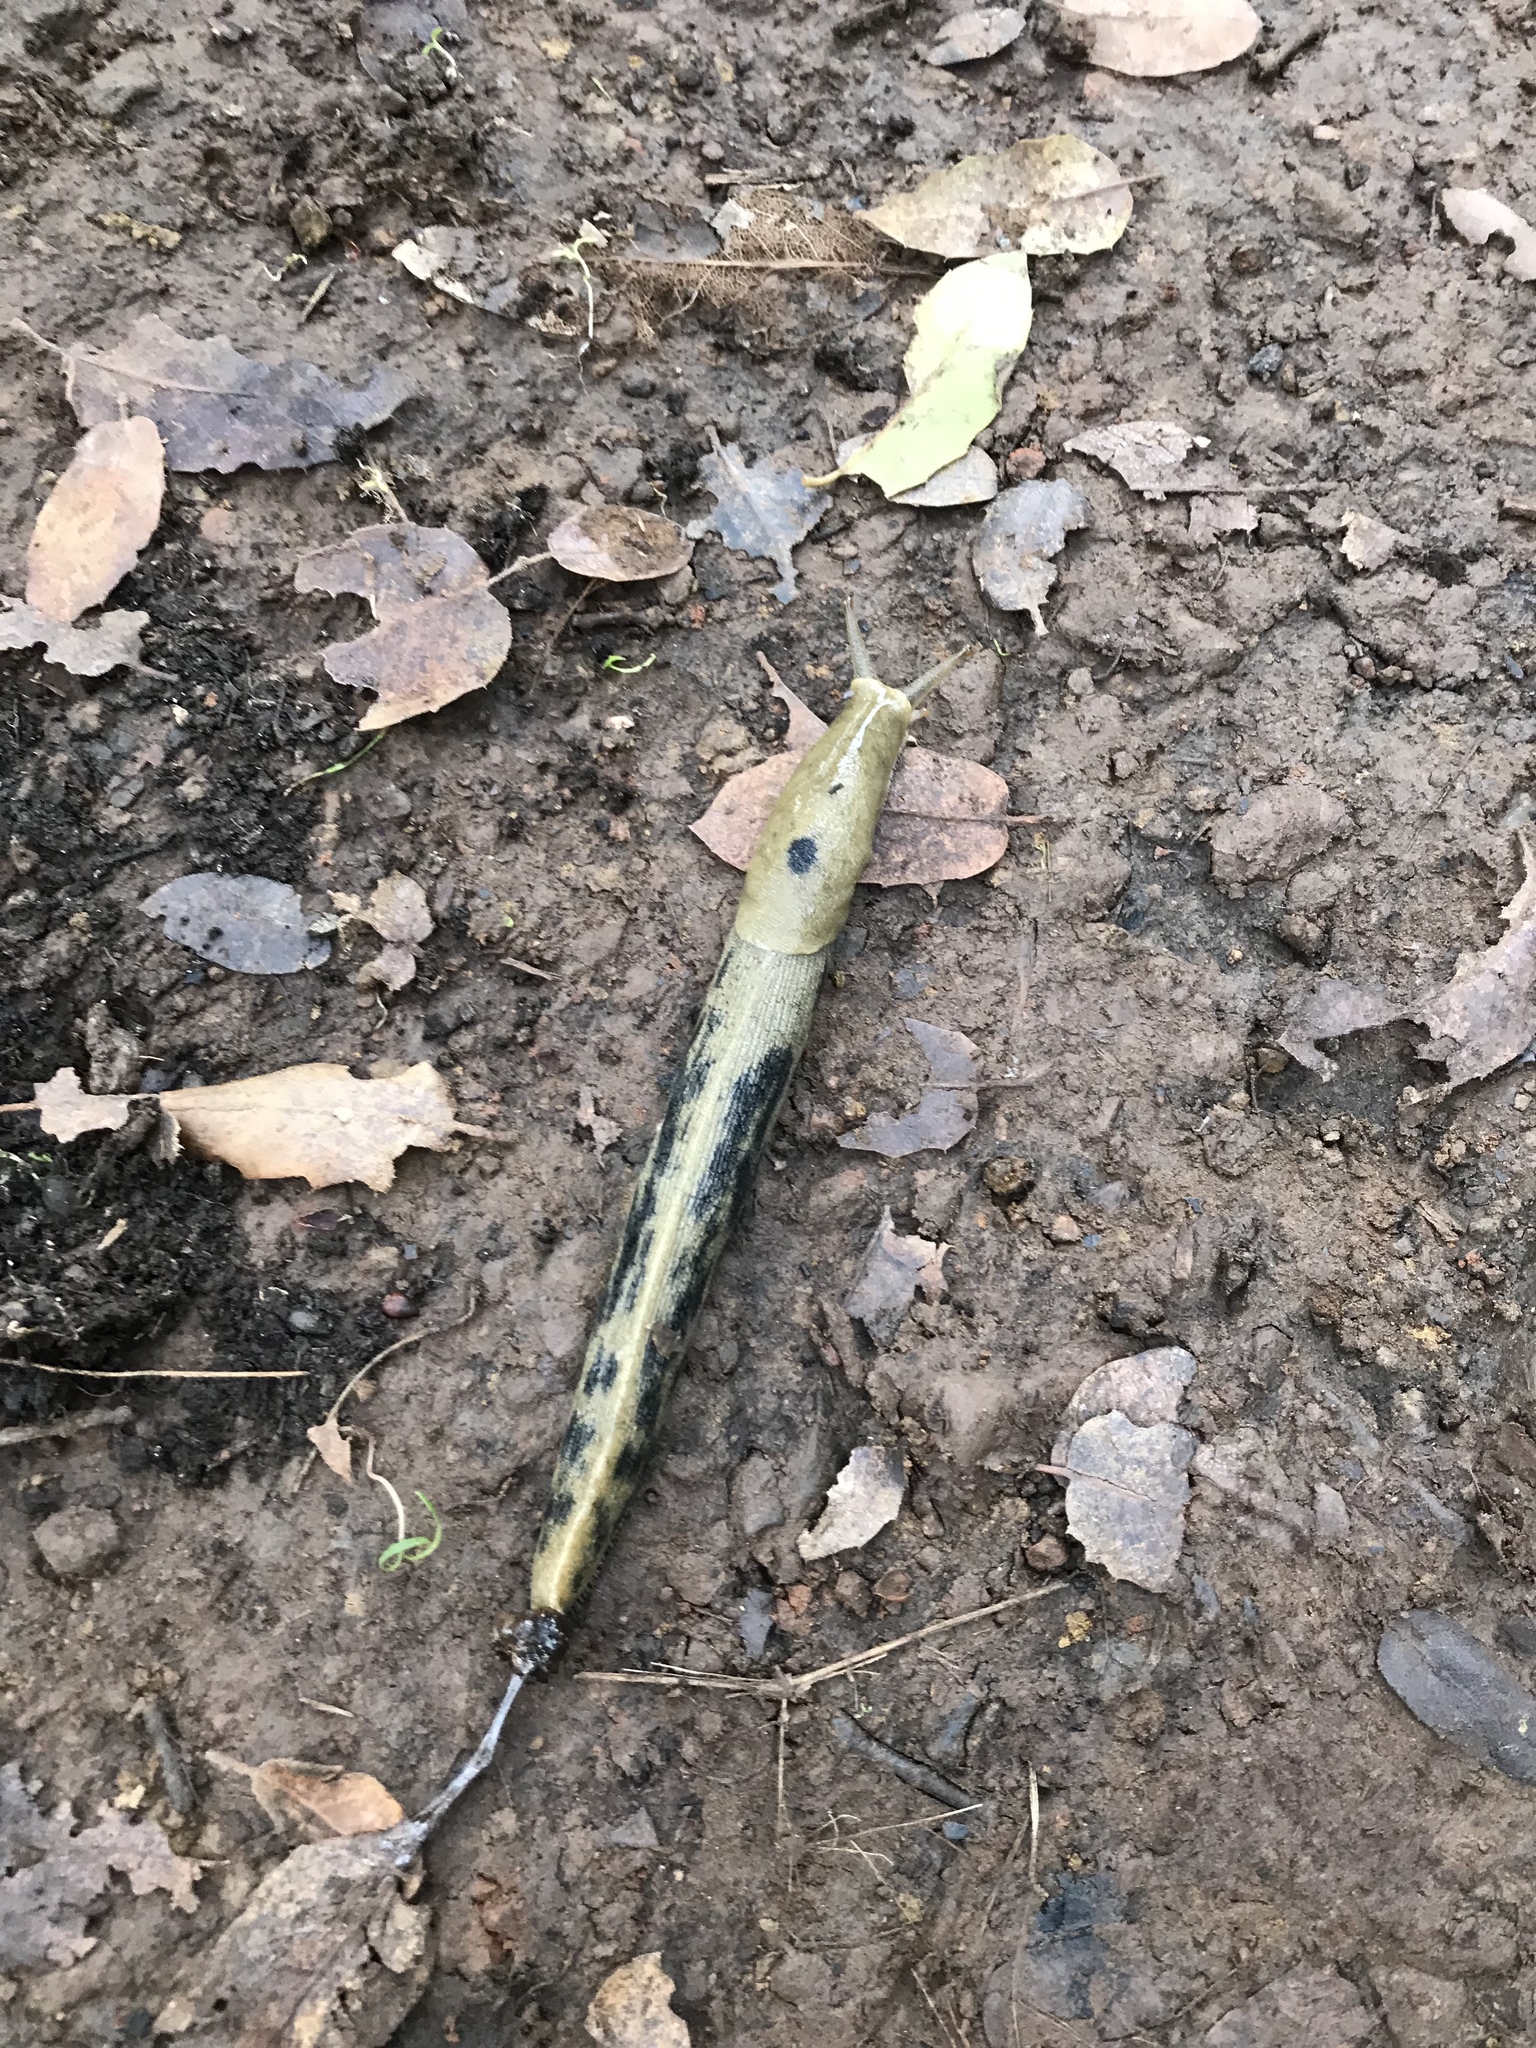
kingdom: Animalia
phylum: Mollusca
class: Gastropoda
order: Stylommatophora
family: Ariolimacidae
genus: Ariolimax
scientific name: Ariolimax buttoni
